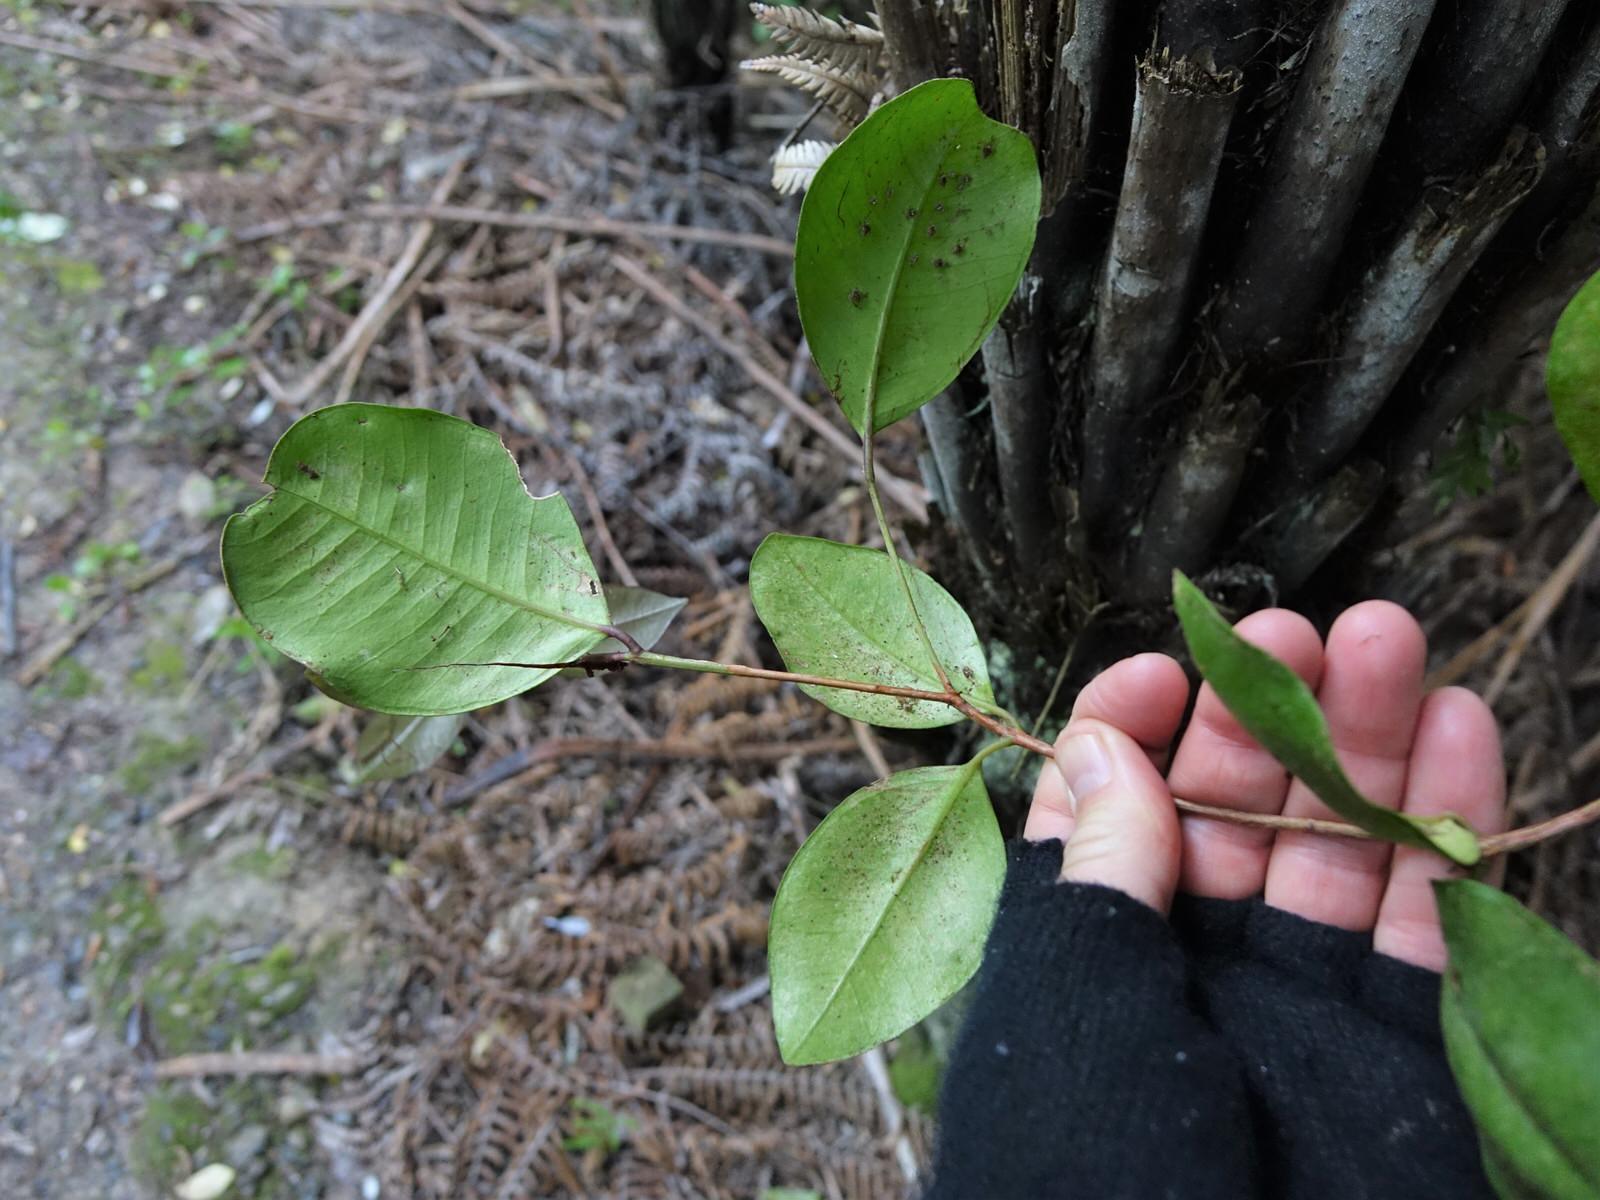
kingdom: Plantae
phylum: Tracheophyta
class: Magnoliopsida
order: Myrtales
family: Myrtaceae
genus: Syzygium
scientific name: Syzygium smithii
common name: Lilly-pilly
